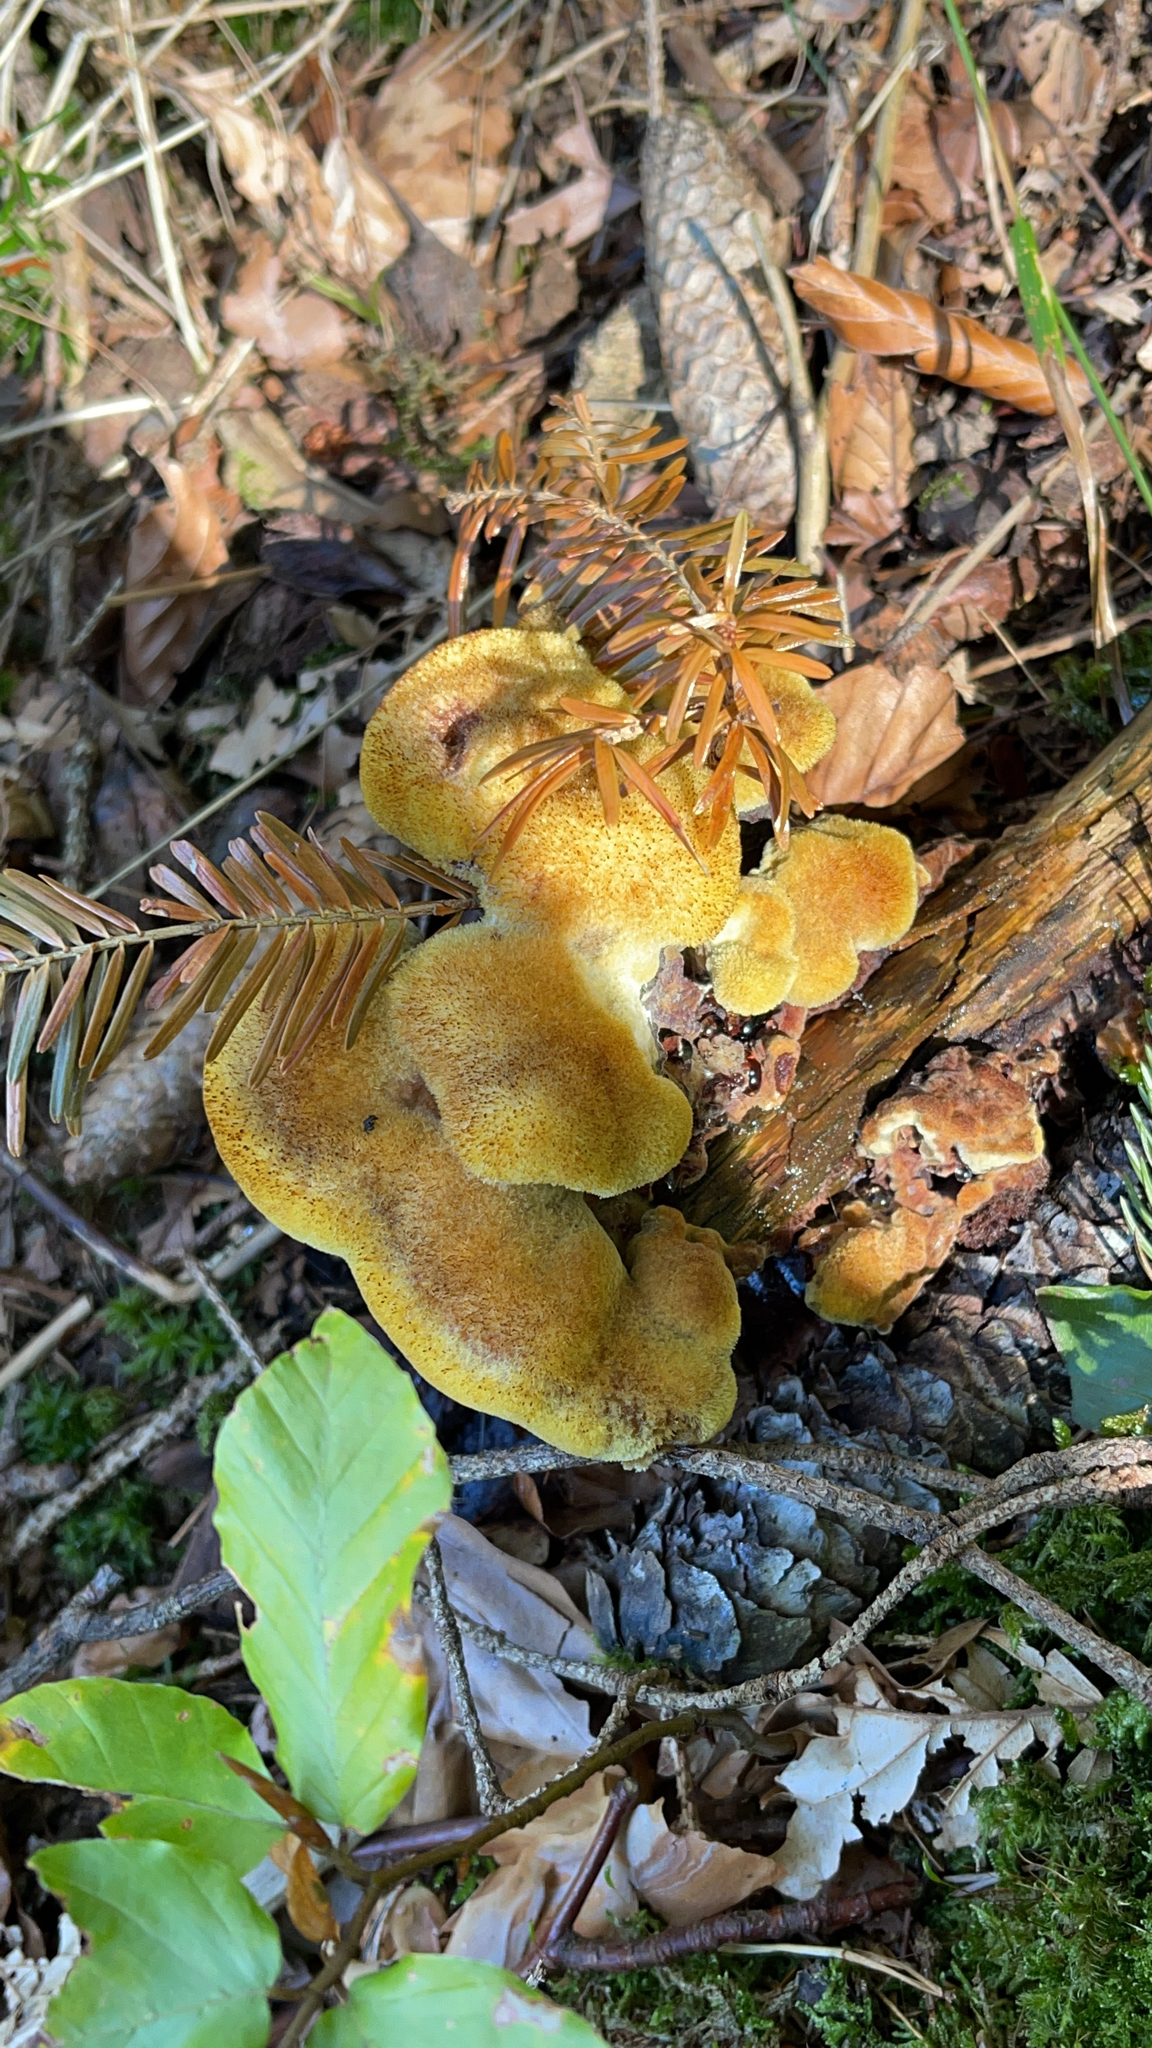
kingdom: Fungi
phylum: Basidiomycota
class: Agaricomycetes
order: Polyporales
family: Laetiporaceae
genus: Phaeolus
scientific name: Phaeolus schweinitzii
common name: Dyer's mazegill
